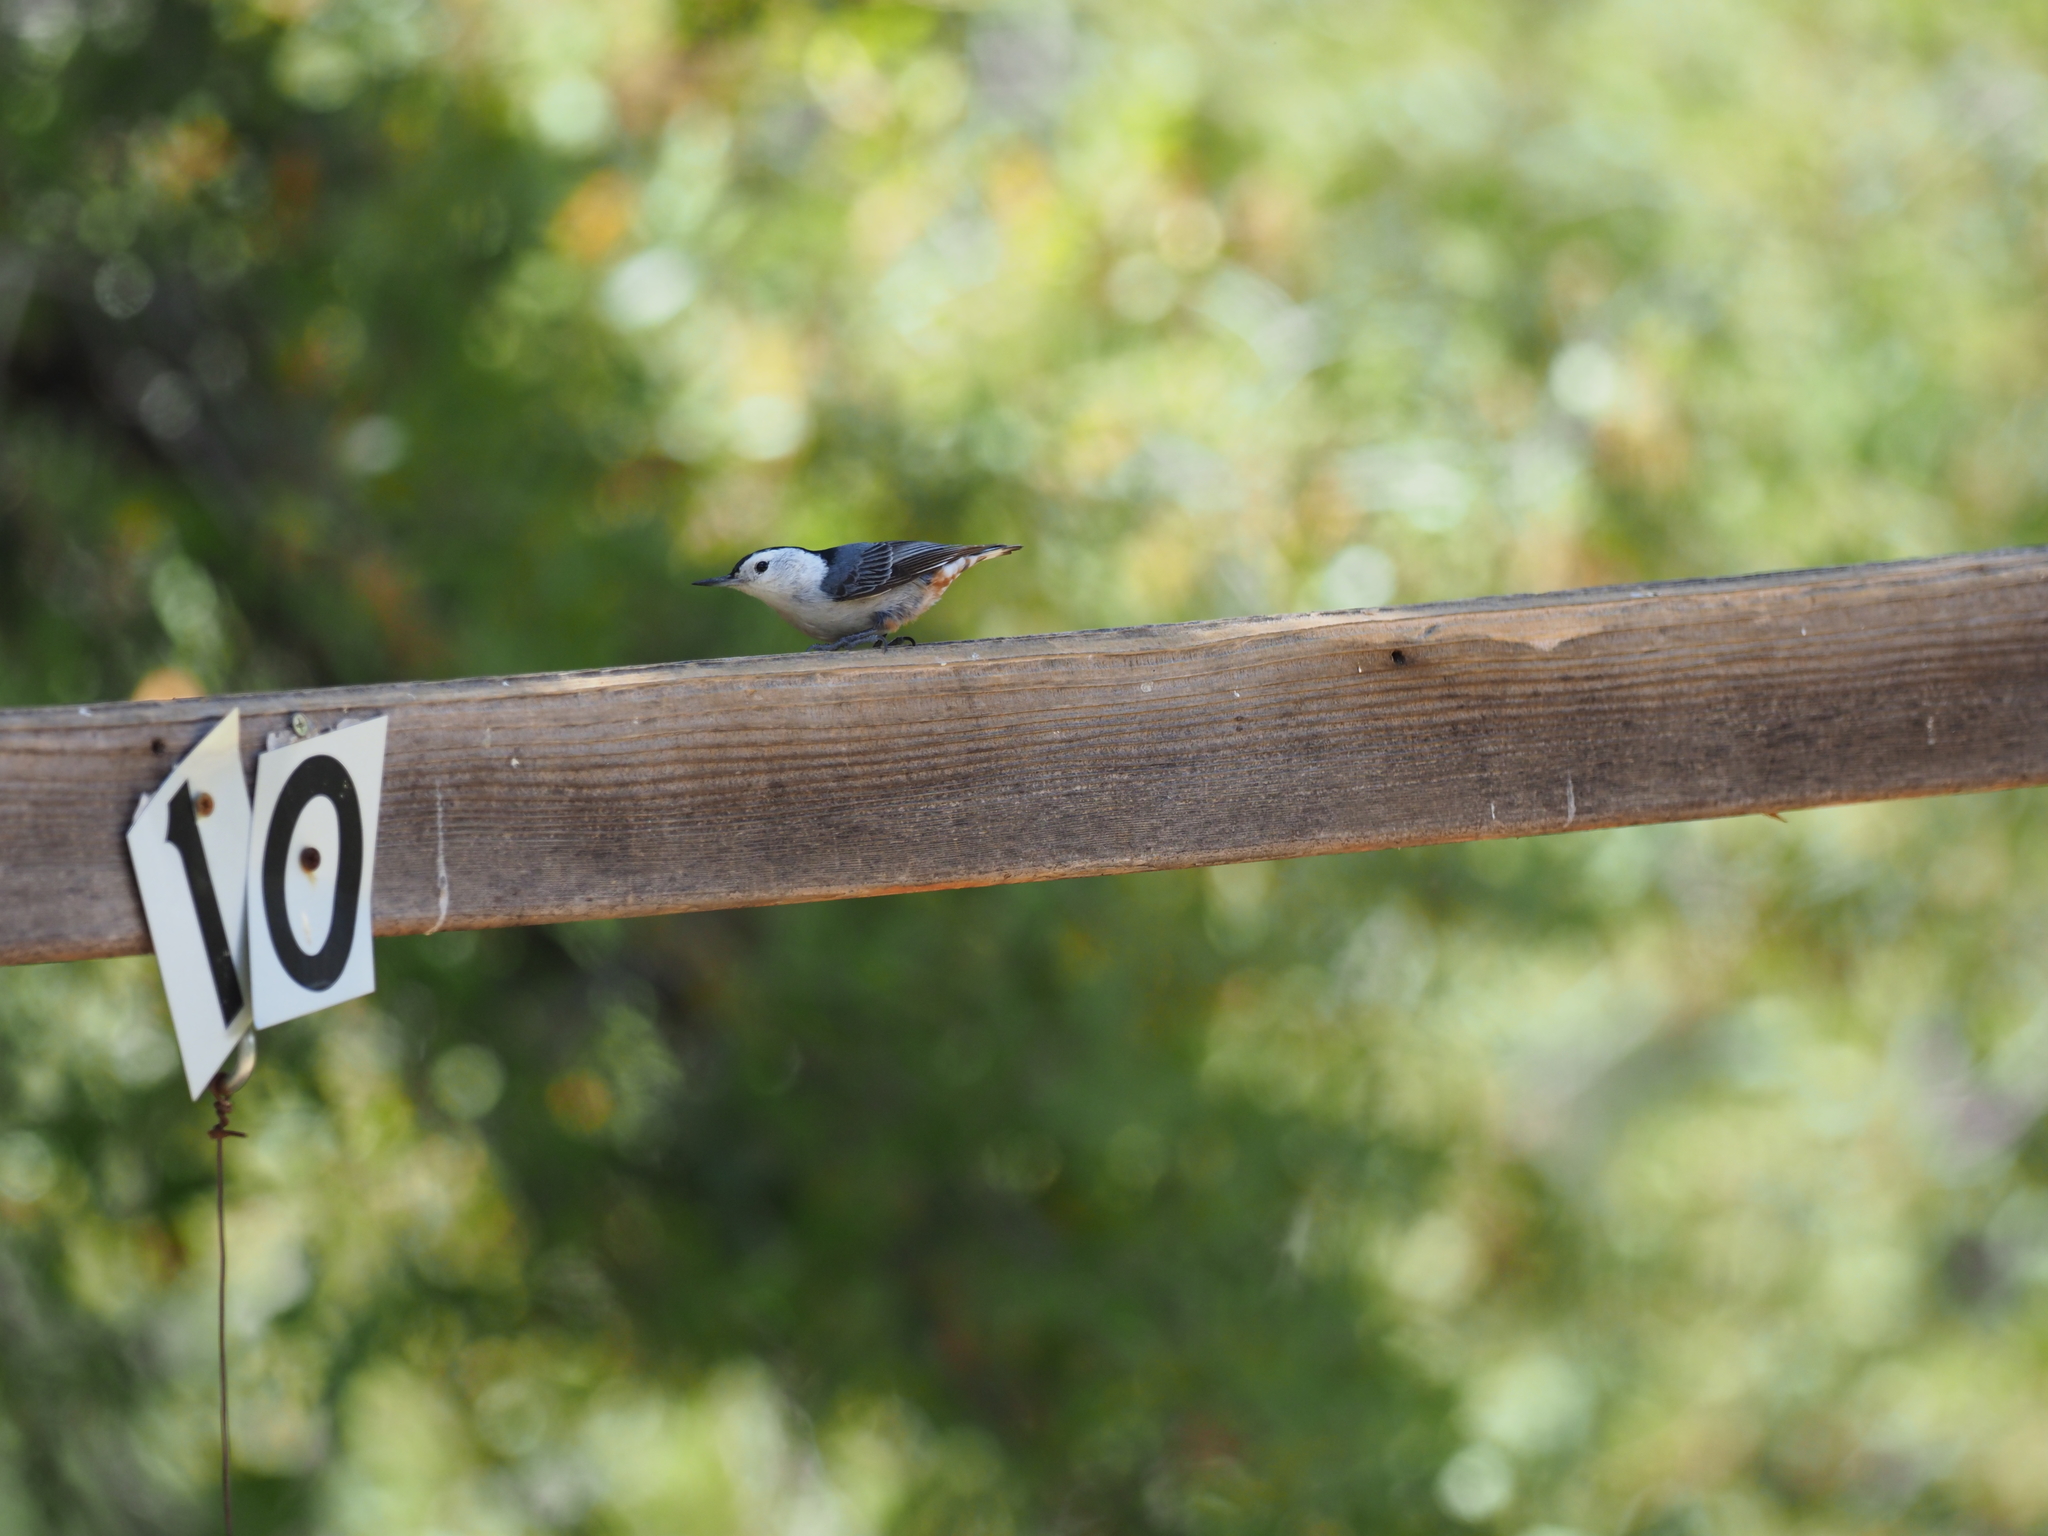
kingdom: Animalia
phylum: Chordata
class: Aves
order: Passeriformes
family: Sittidae
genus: Sitta
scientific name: Sitta carolinensis
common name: White-breasted nuthatch
